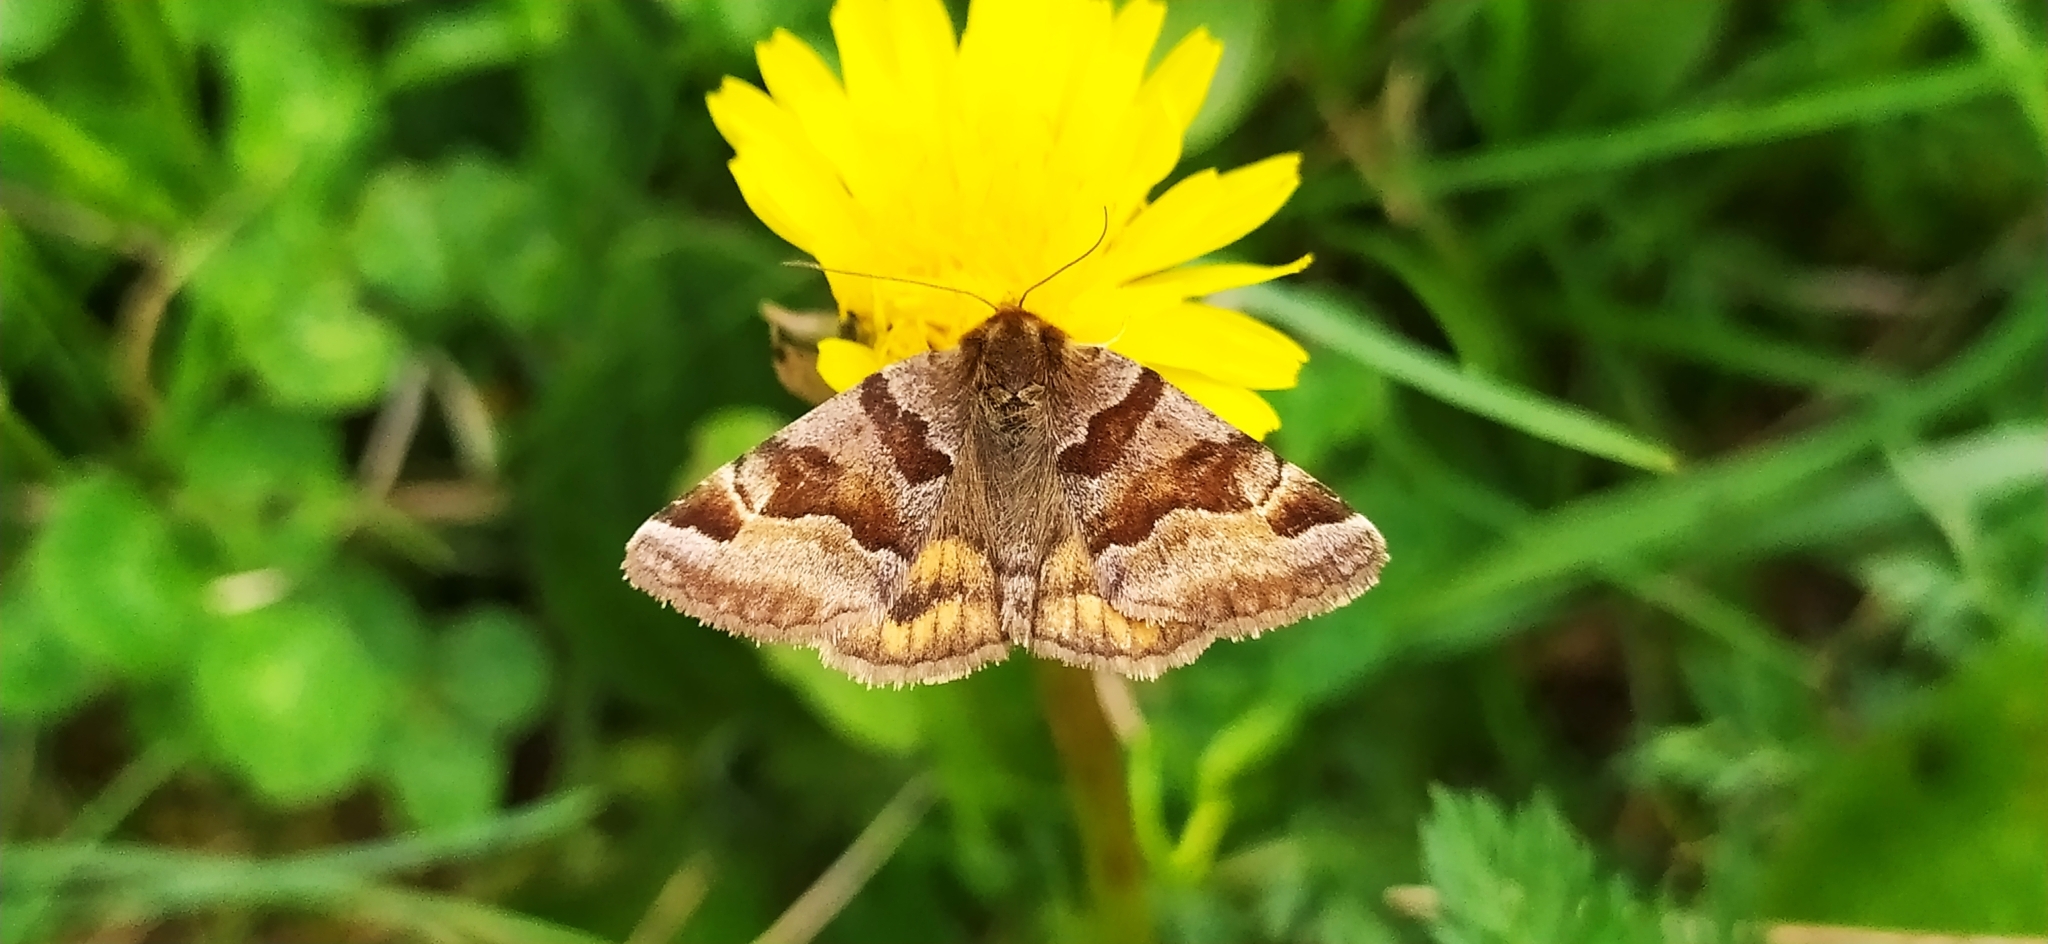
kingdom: Animalia
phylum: Arthropoda
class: Insecta
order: Lepidoptera
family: Erebidae
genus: Euclidia
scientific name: Euclidia glyphica
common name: Burnet companion
